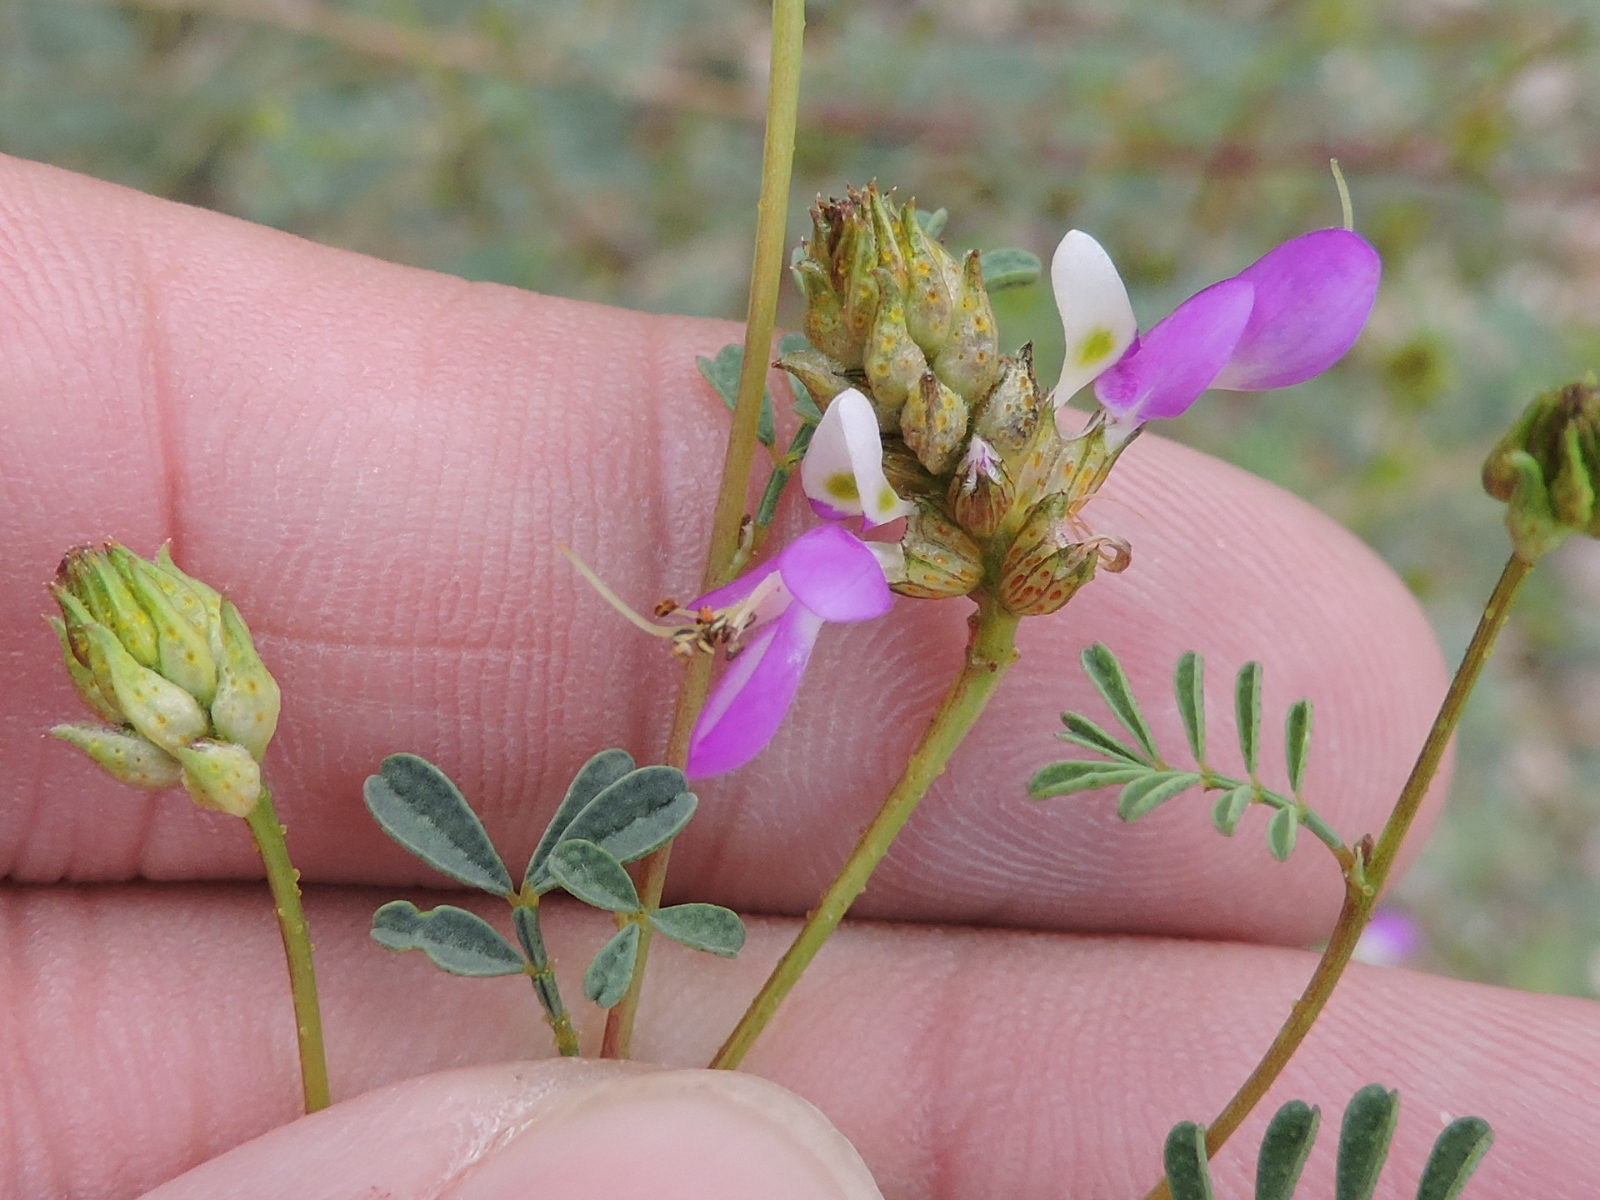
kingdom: Plantae
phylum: Tracheophyta
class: Magnoliopsida
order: Fabales
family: Fabaceae
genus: Dalea
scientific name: Dalea frutescens
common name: Black dalea
